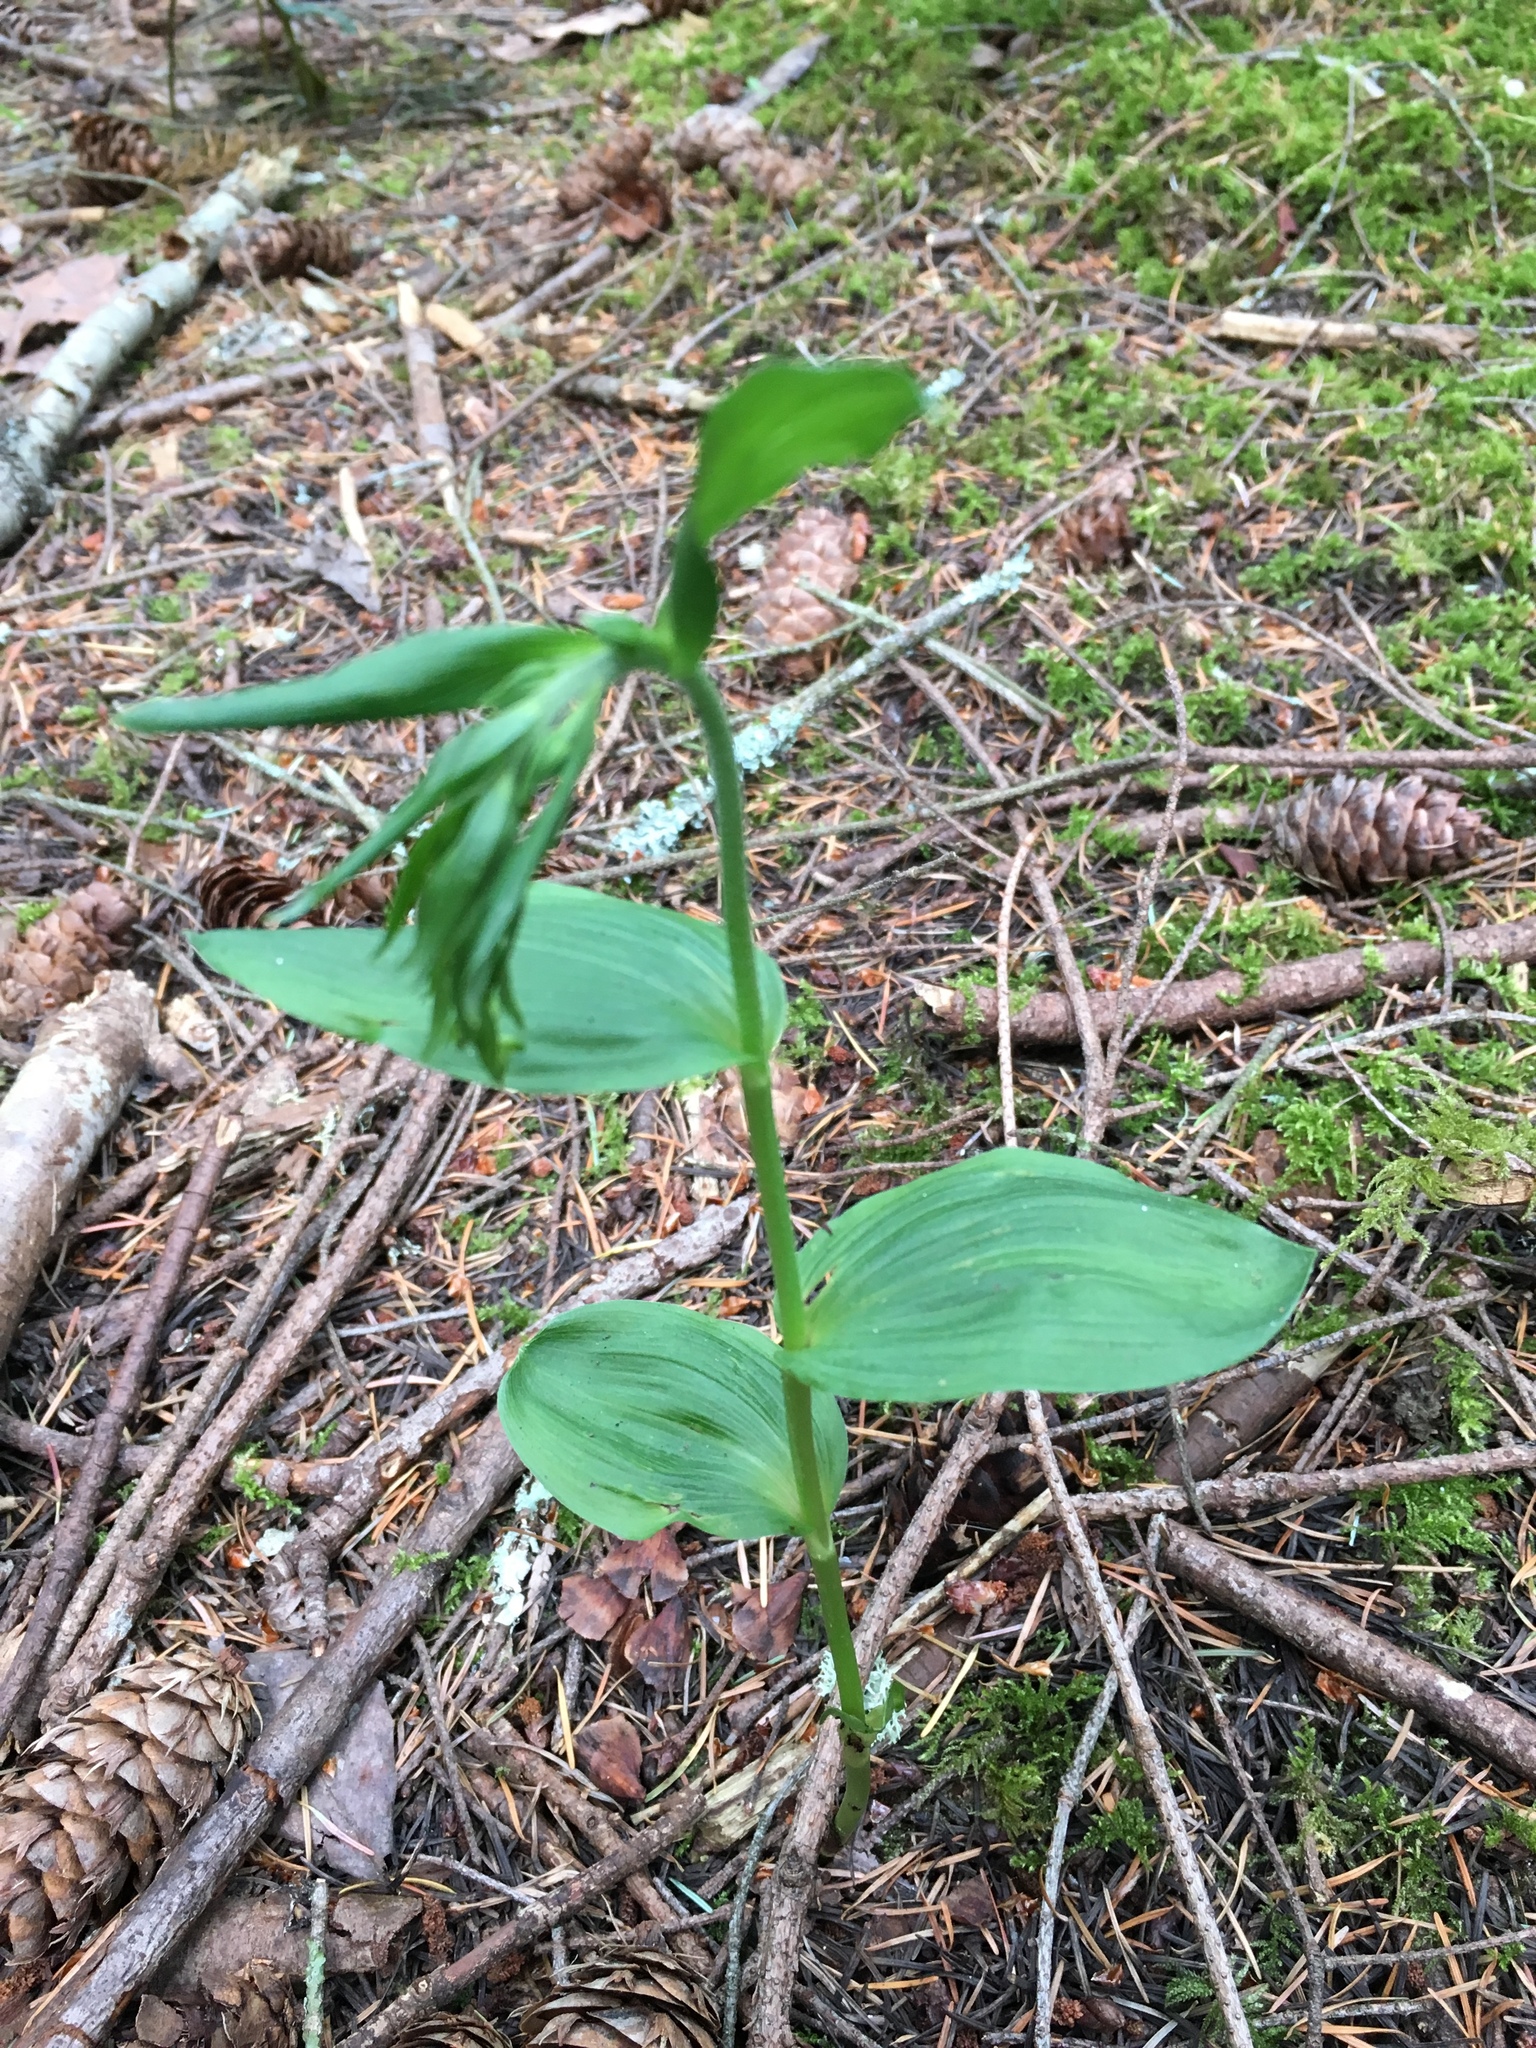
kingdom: Plantae
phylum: Tracheophyta
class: Liliopsida
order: Asparagales
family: Orchidaceae
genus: Epipactis
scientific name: Epipactis helleborine
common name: Broad-leaved helleborine
